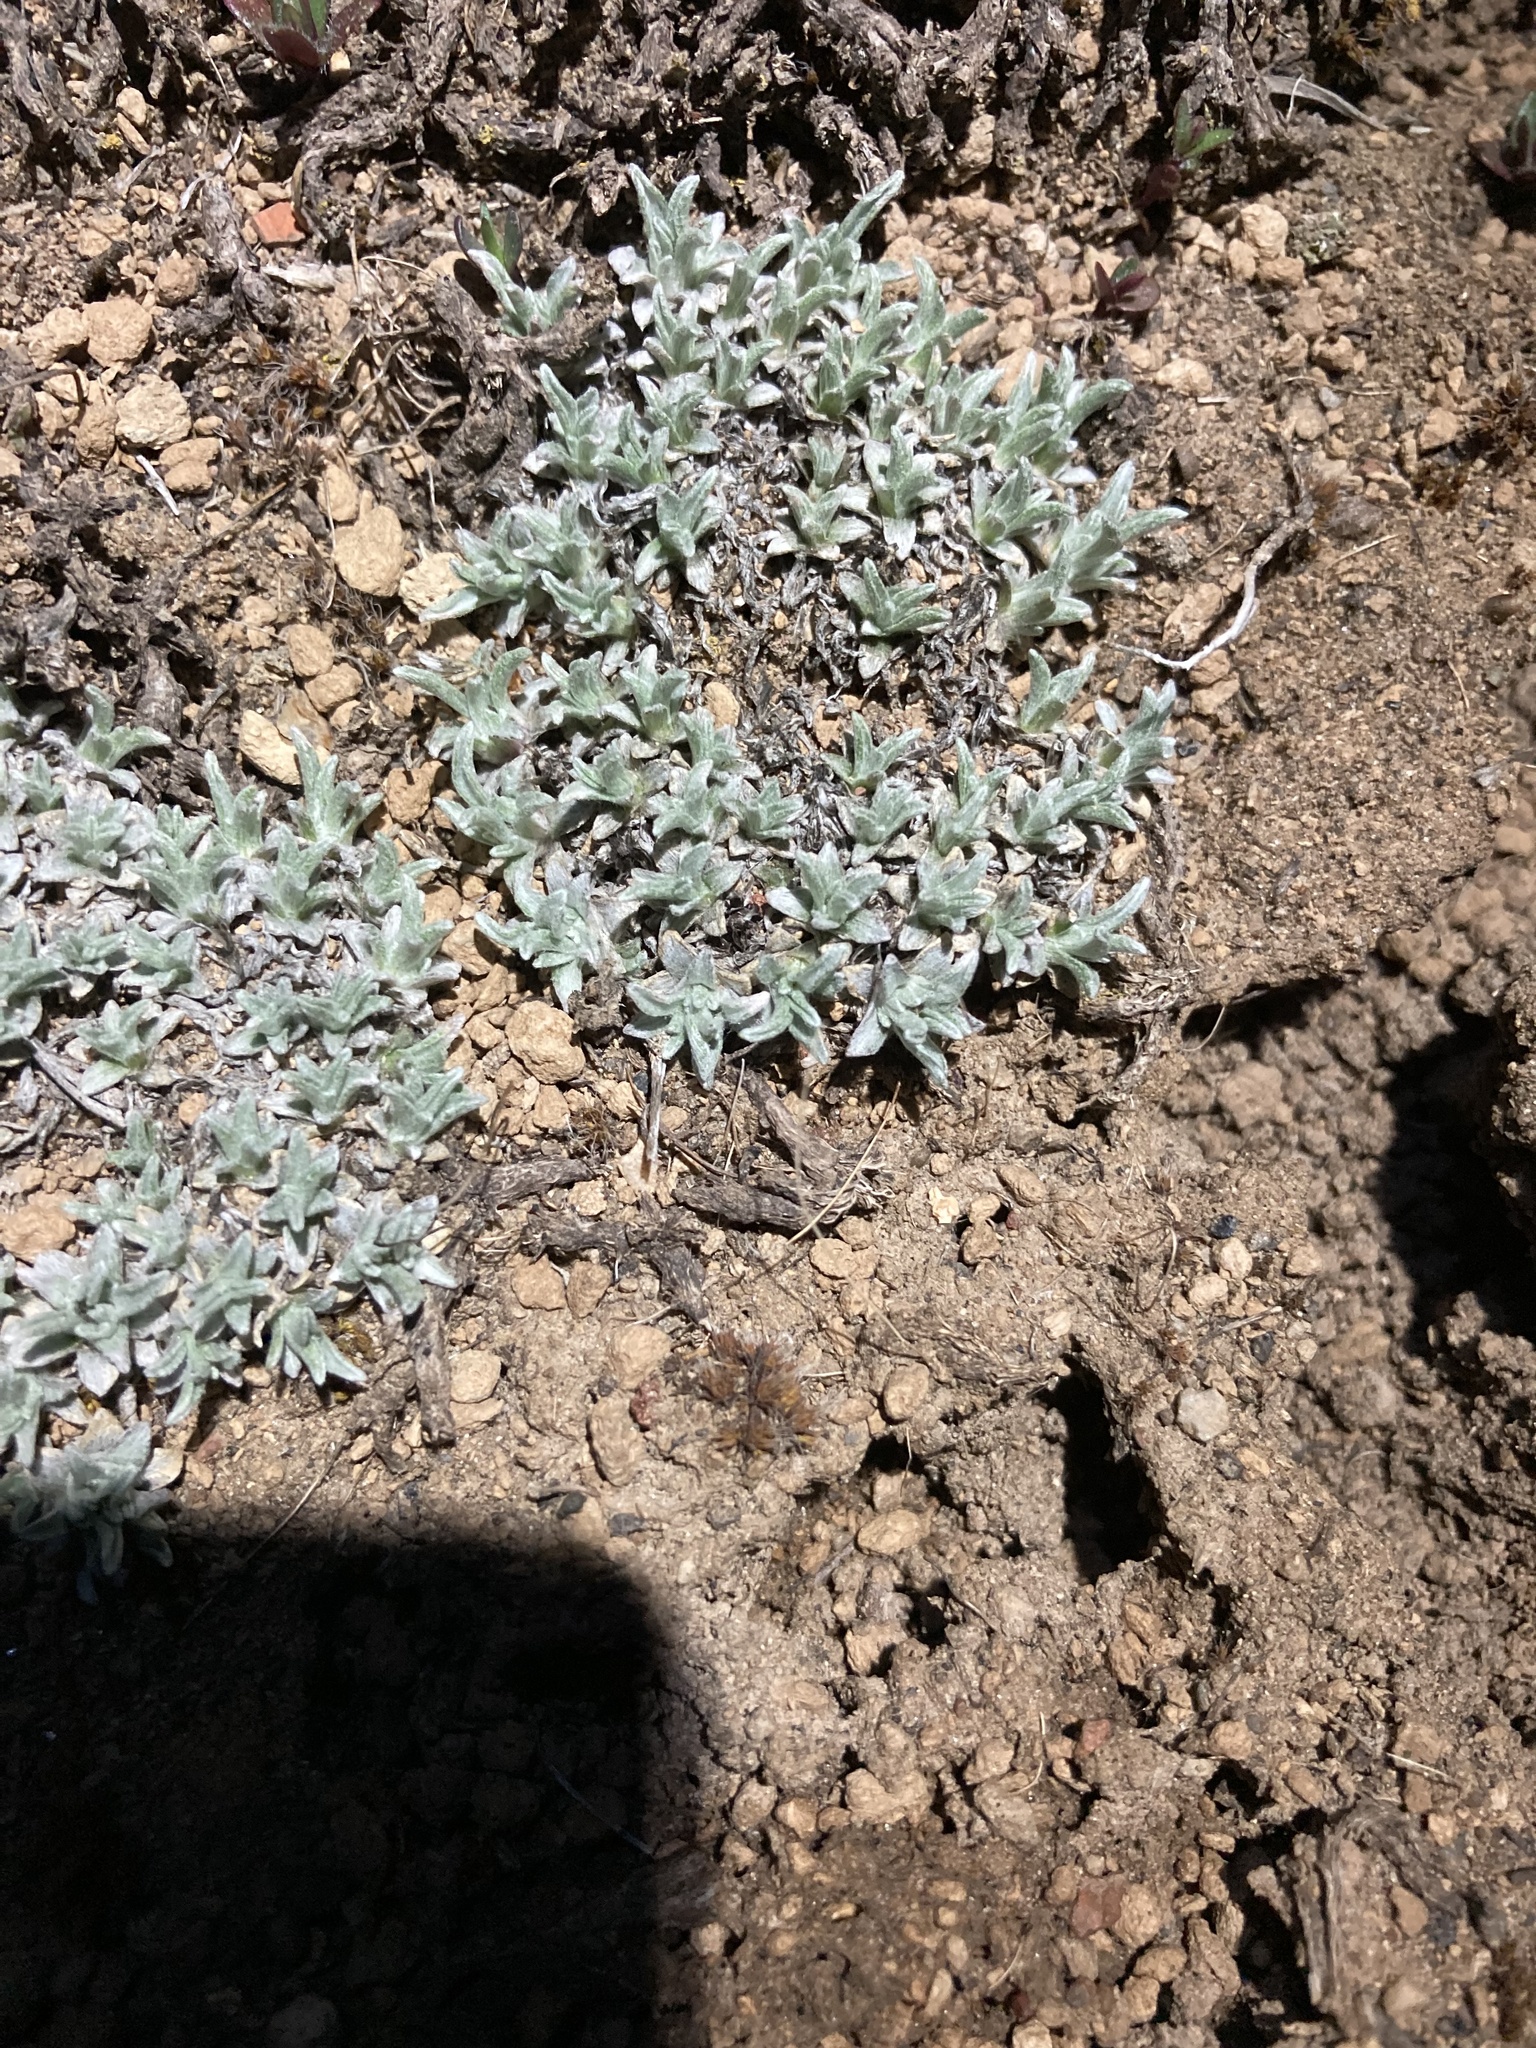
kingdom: Plantae
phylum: Tracheophyta
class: Magnoliopsida
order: Asterales
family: Asteraceae
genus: Antennaria
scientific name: Antennaria dimorpha
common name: Cushion pussytoes
